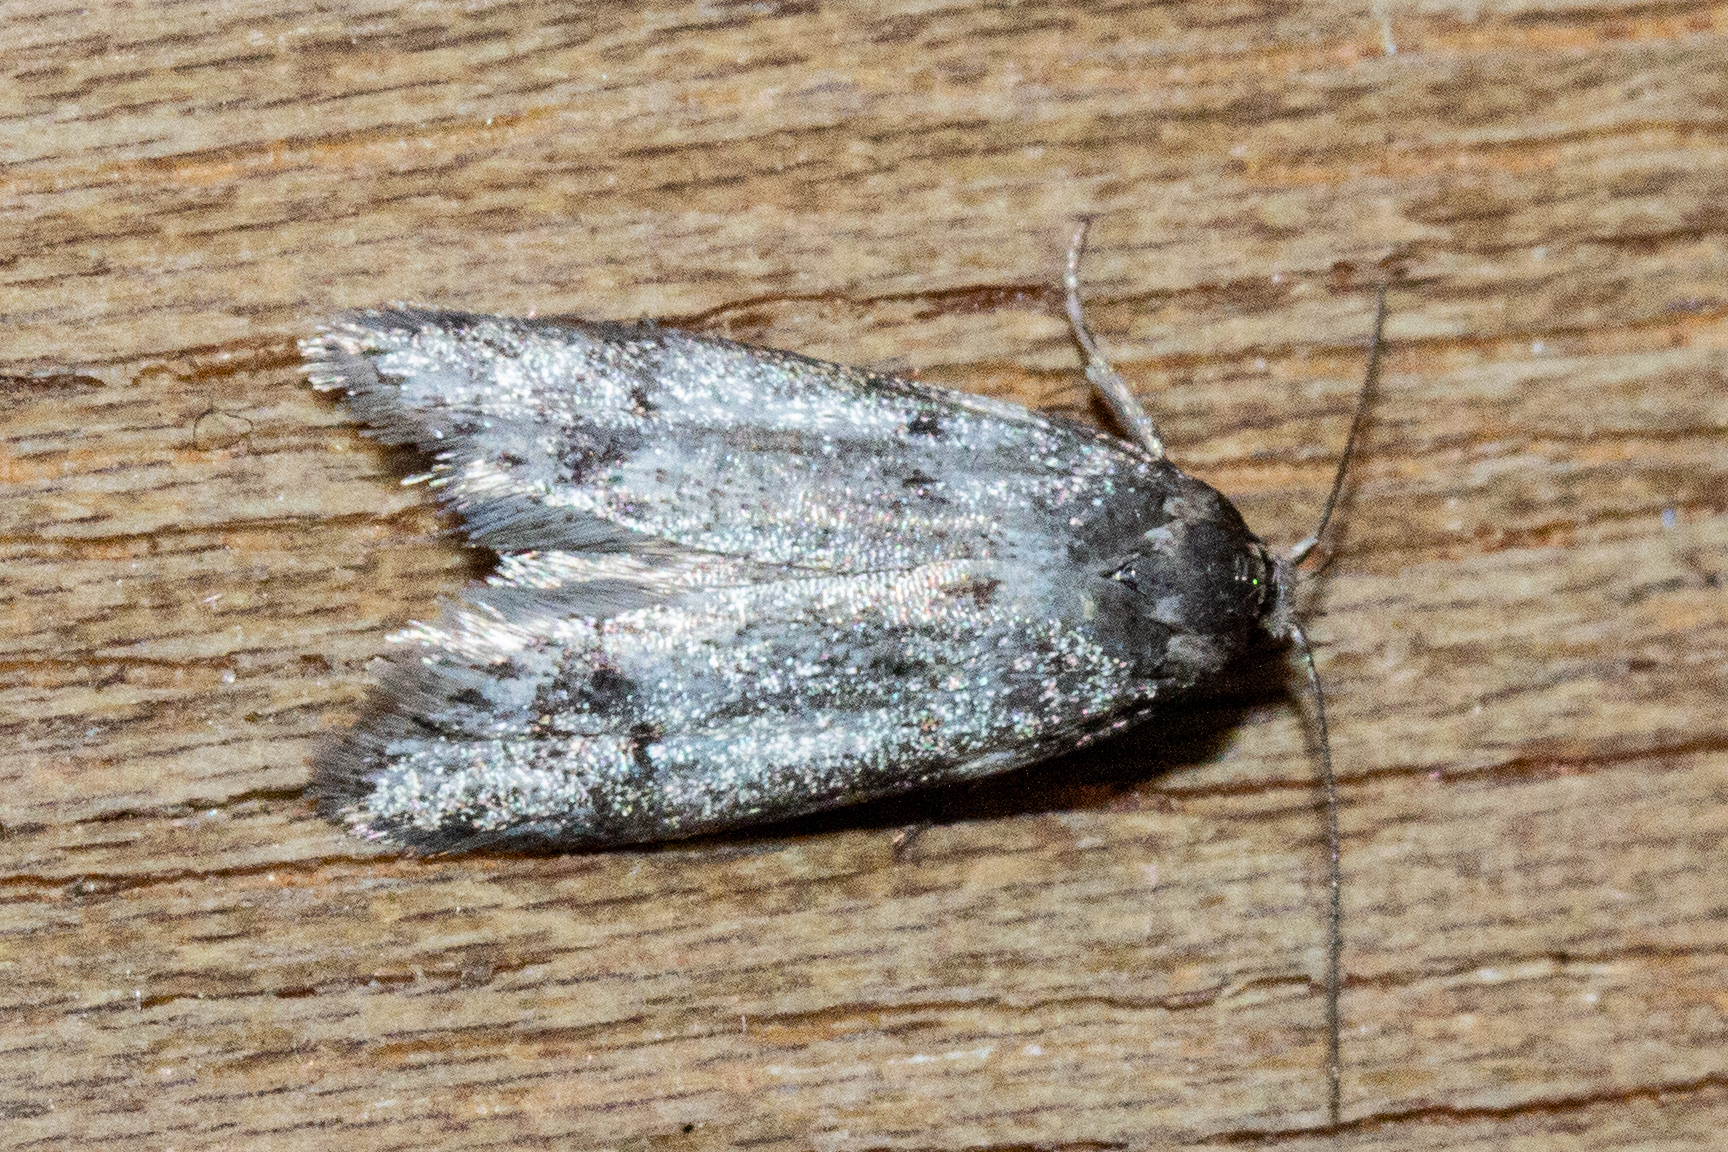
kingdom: Animalia
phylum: Arthropoda
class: Insecta
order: Lepidoptera
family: Oecophoridae
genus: Trachypepla
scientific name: Trachypepla indolescens
